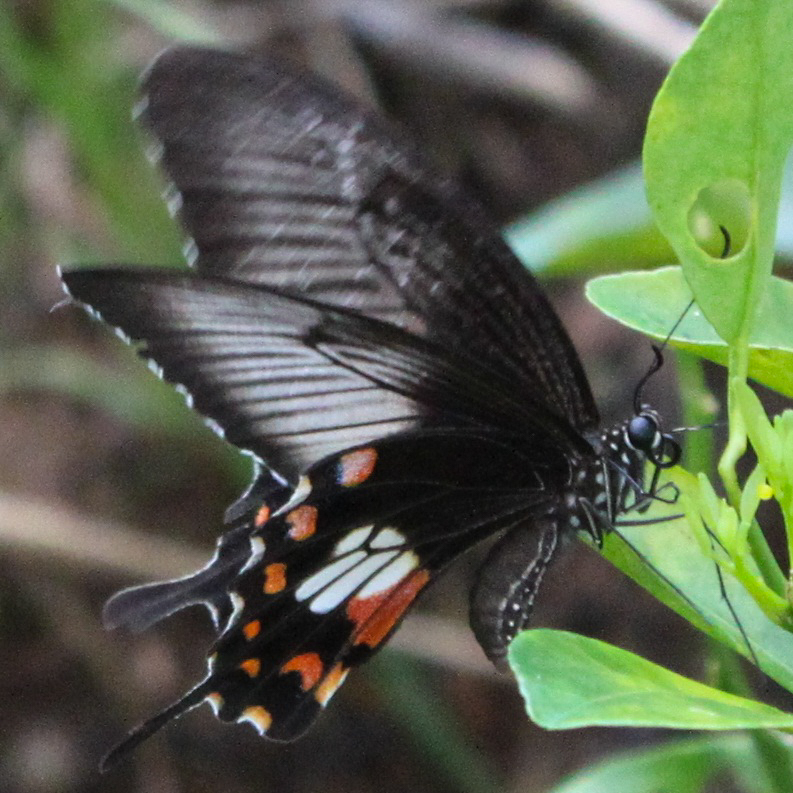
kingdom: Animalia
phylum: Arthropoda
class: Insecta
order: Lepidoptera
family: Papilionidae
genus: Papilio
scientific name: Papilio polytes
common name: Common mormon
